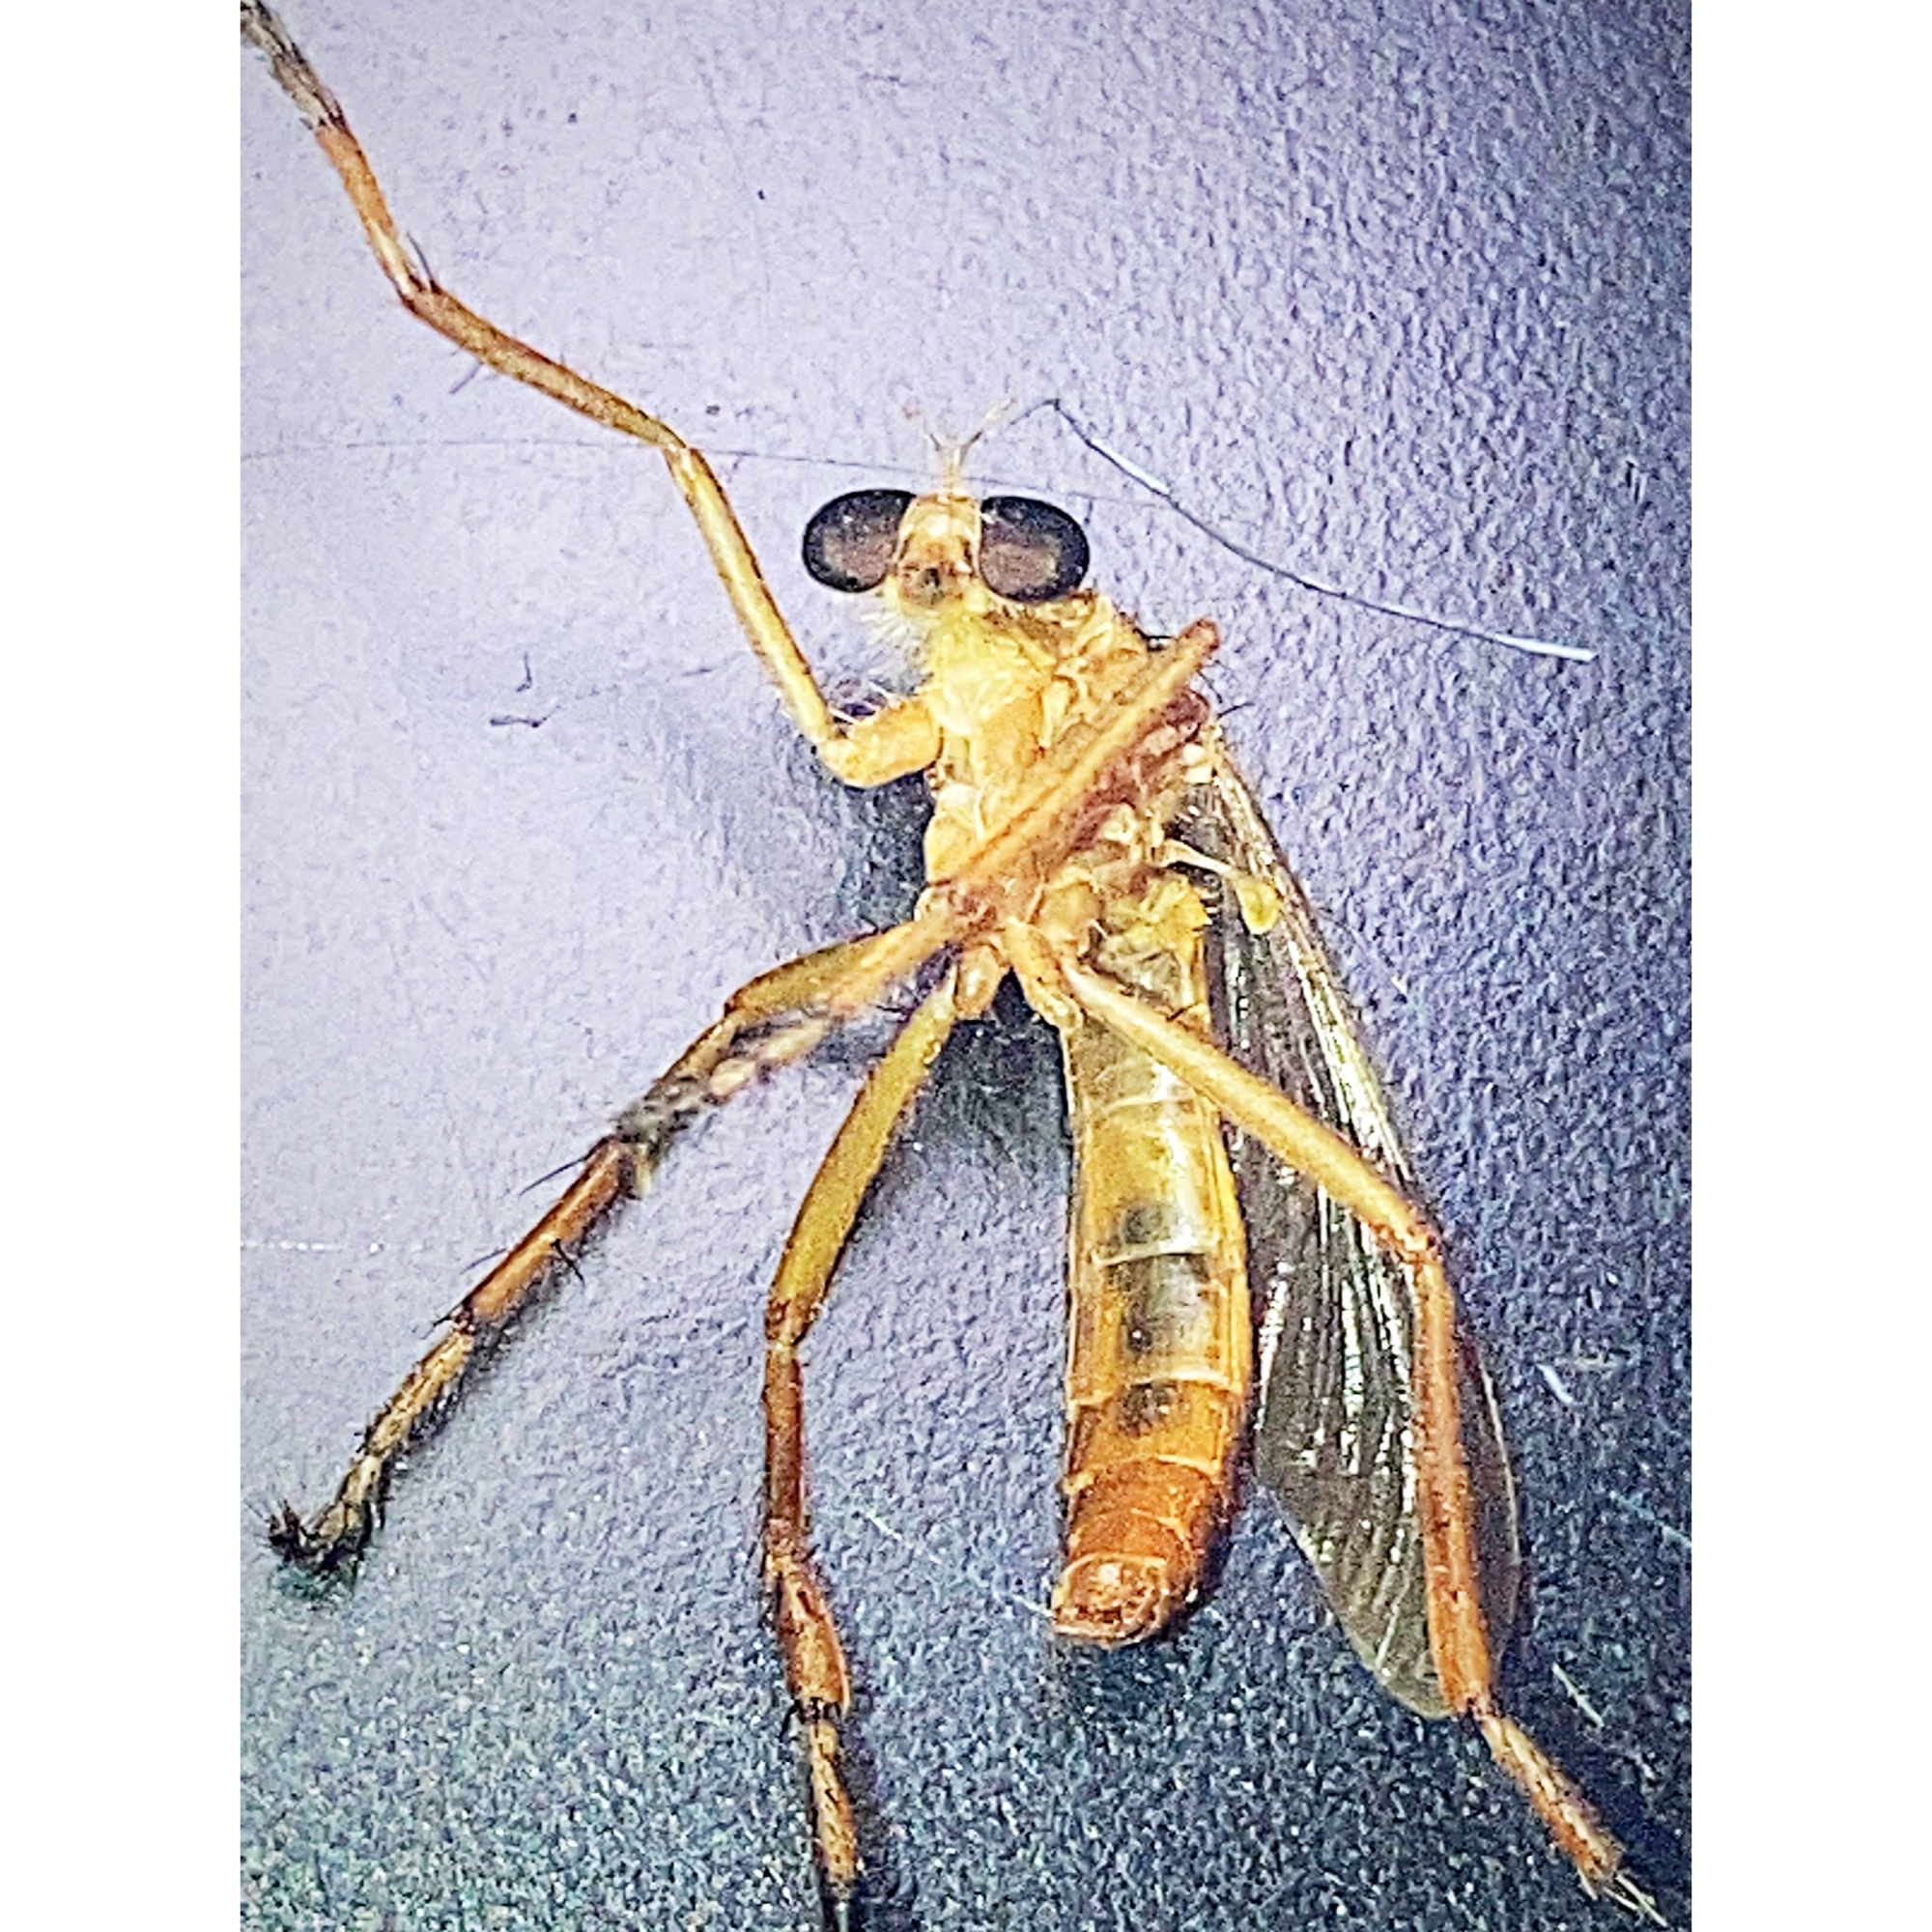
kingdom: Animalia
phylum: Arthropoda
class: Insecta
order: Diptera
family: Asilidae
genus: Diogmites
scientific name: Diogmites neoternatus
